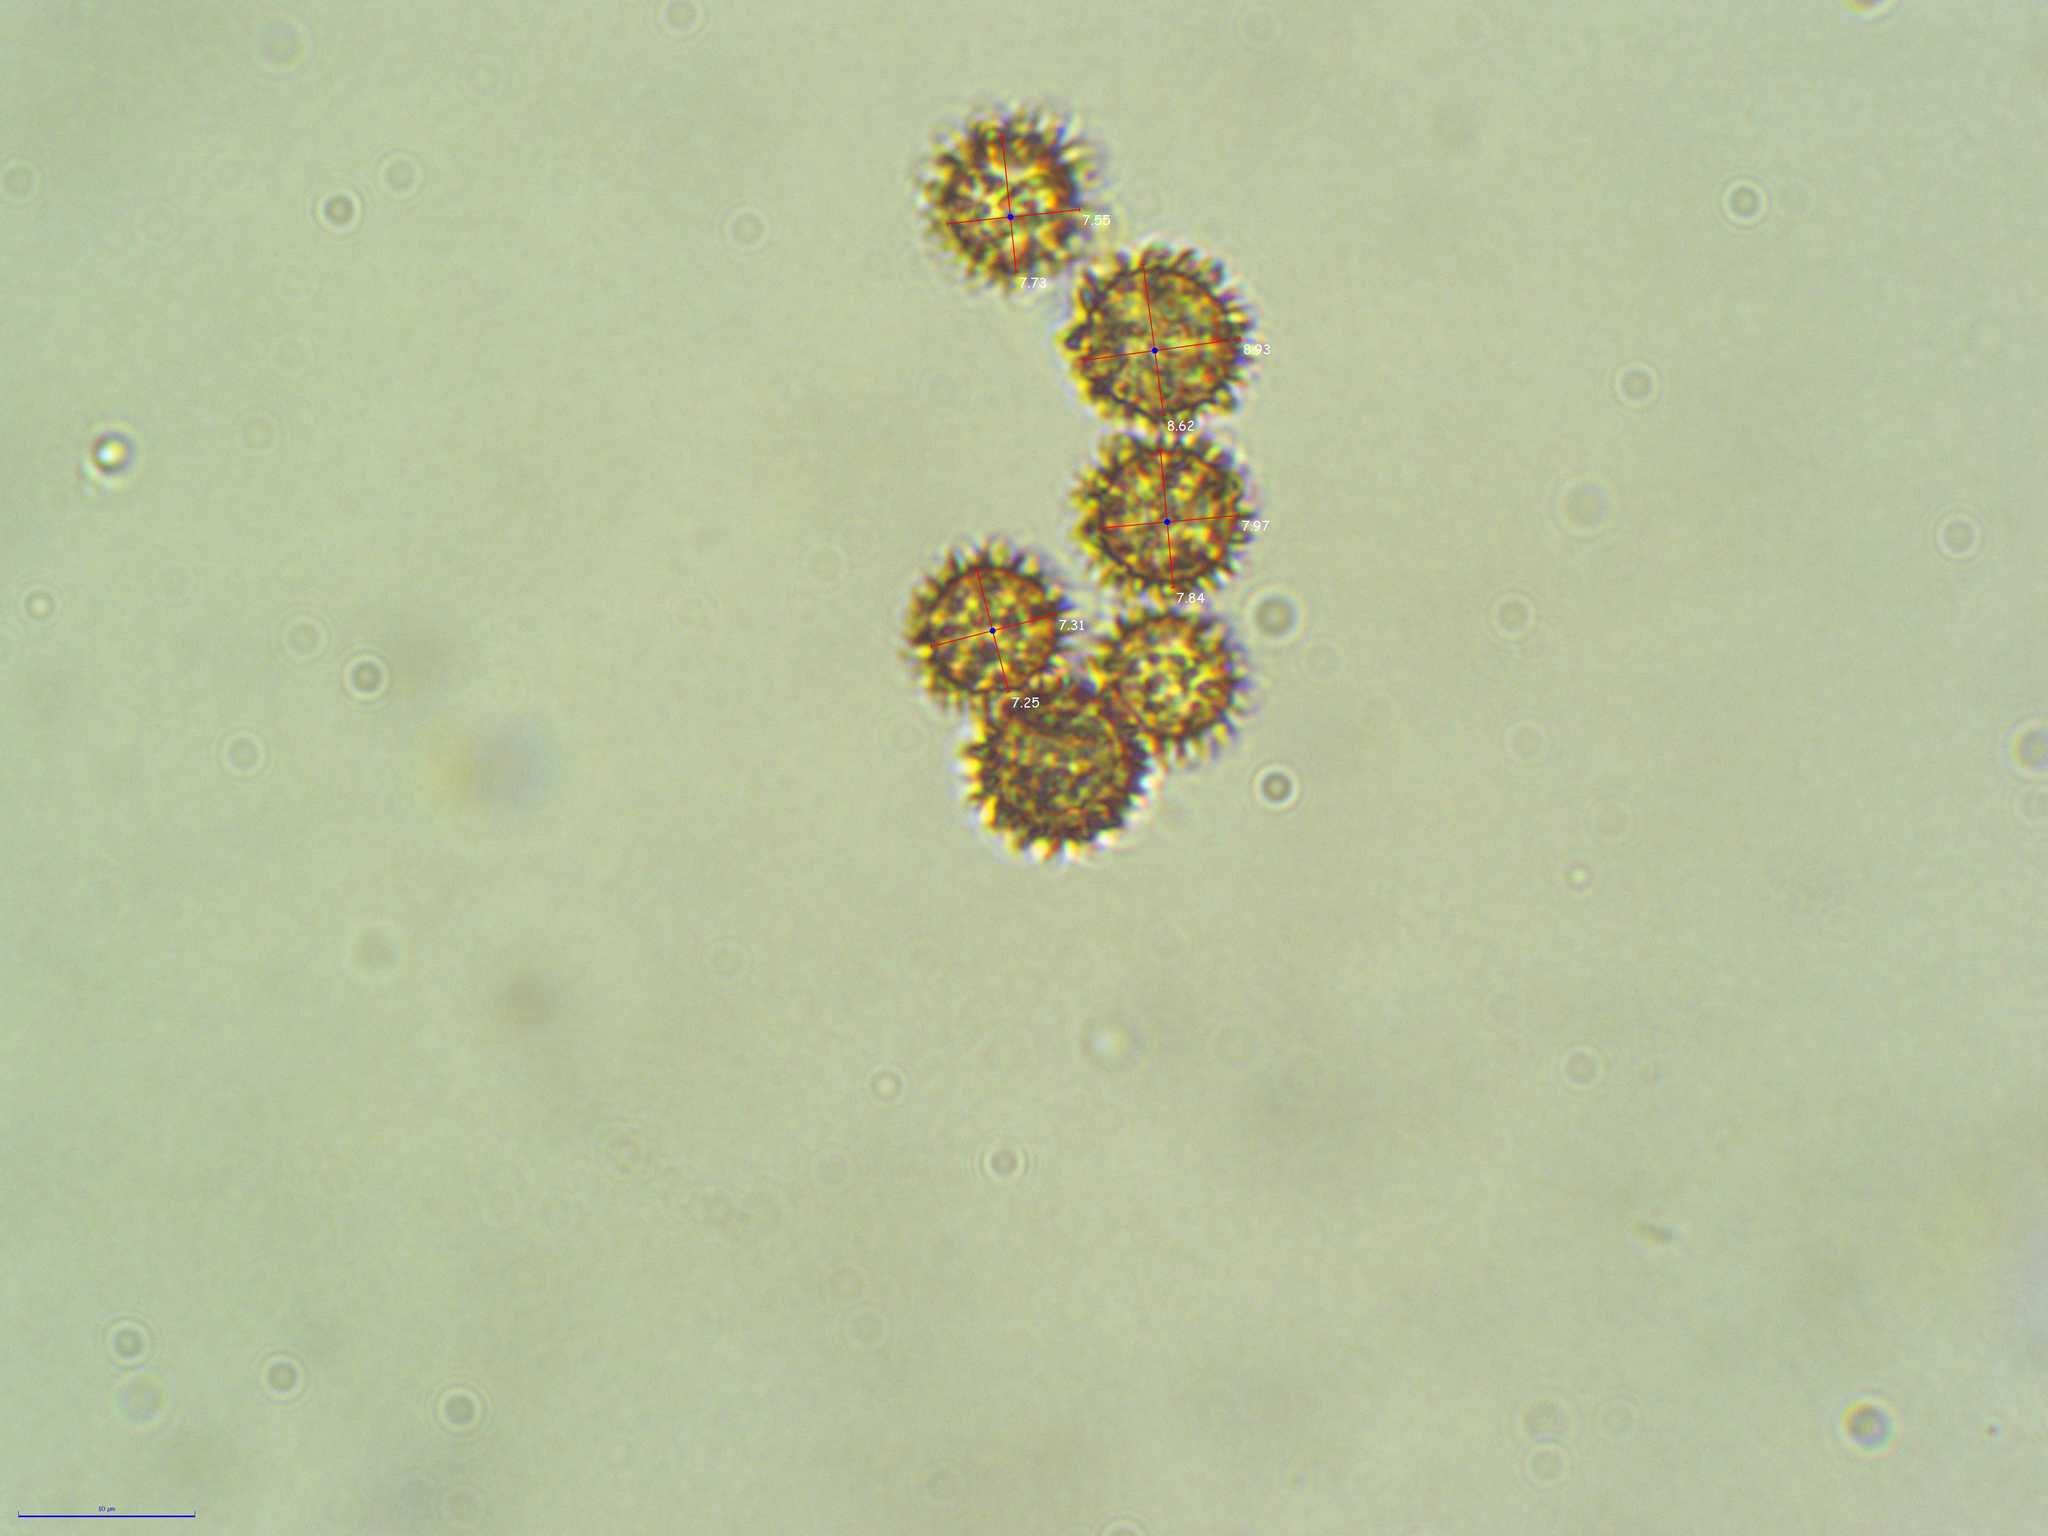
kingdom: Fungi
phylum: Basidiomycota
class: Agaricomycetes
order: Boletales
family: Sclerodermataceae
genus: Pisolithus
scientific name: Pisolithus arhizus
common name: Dyeball
